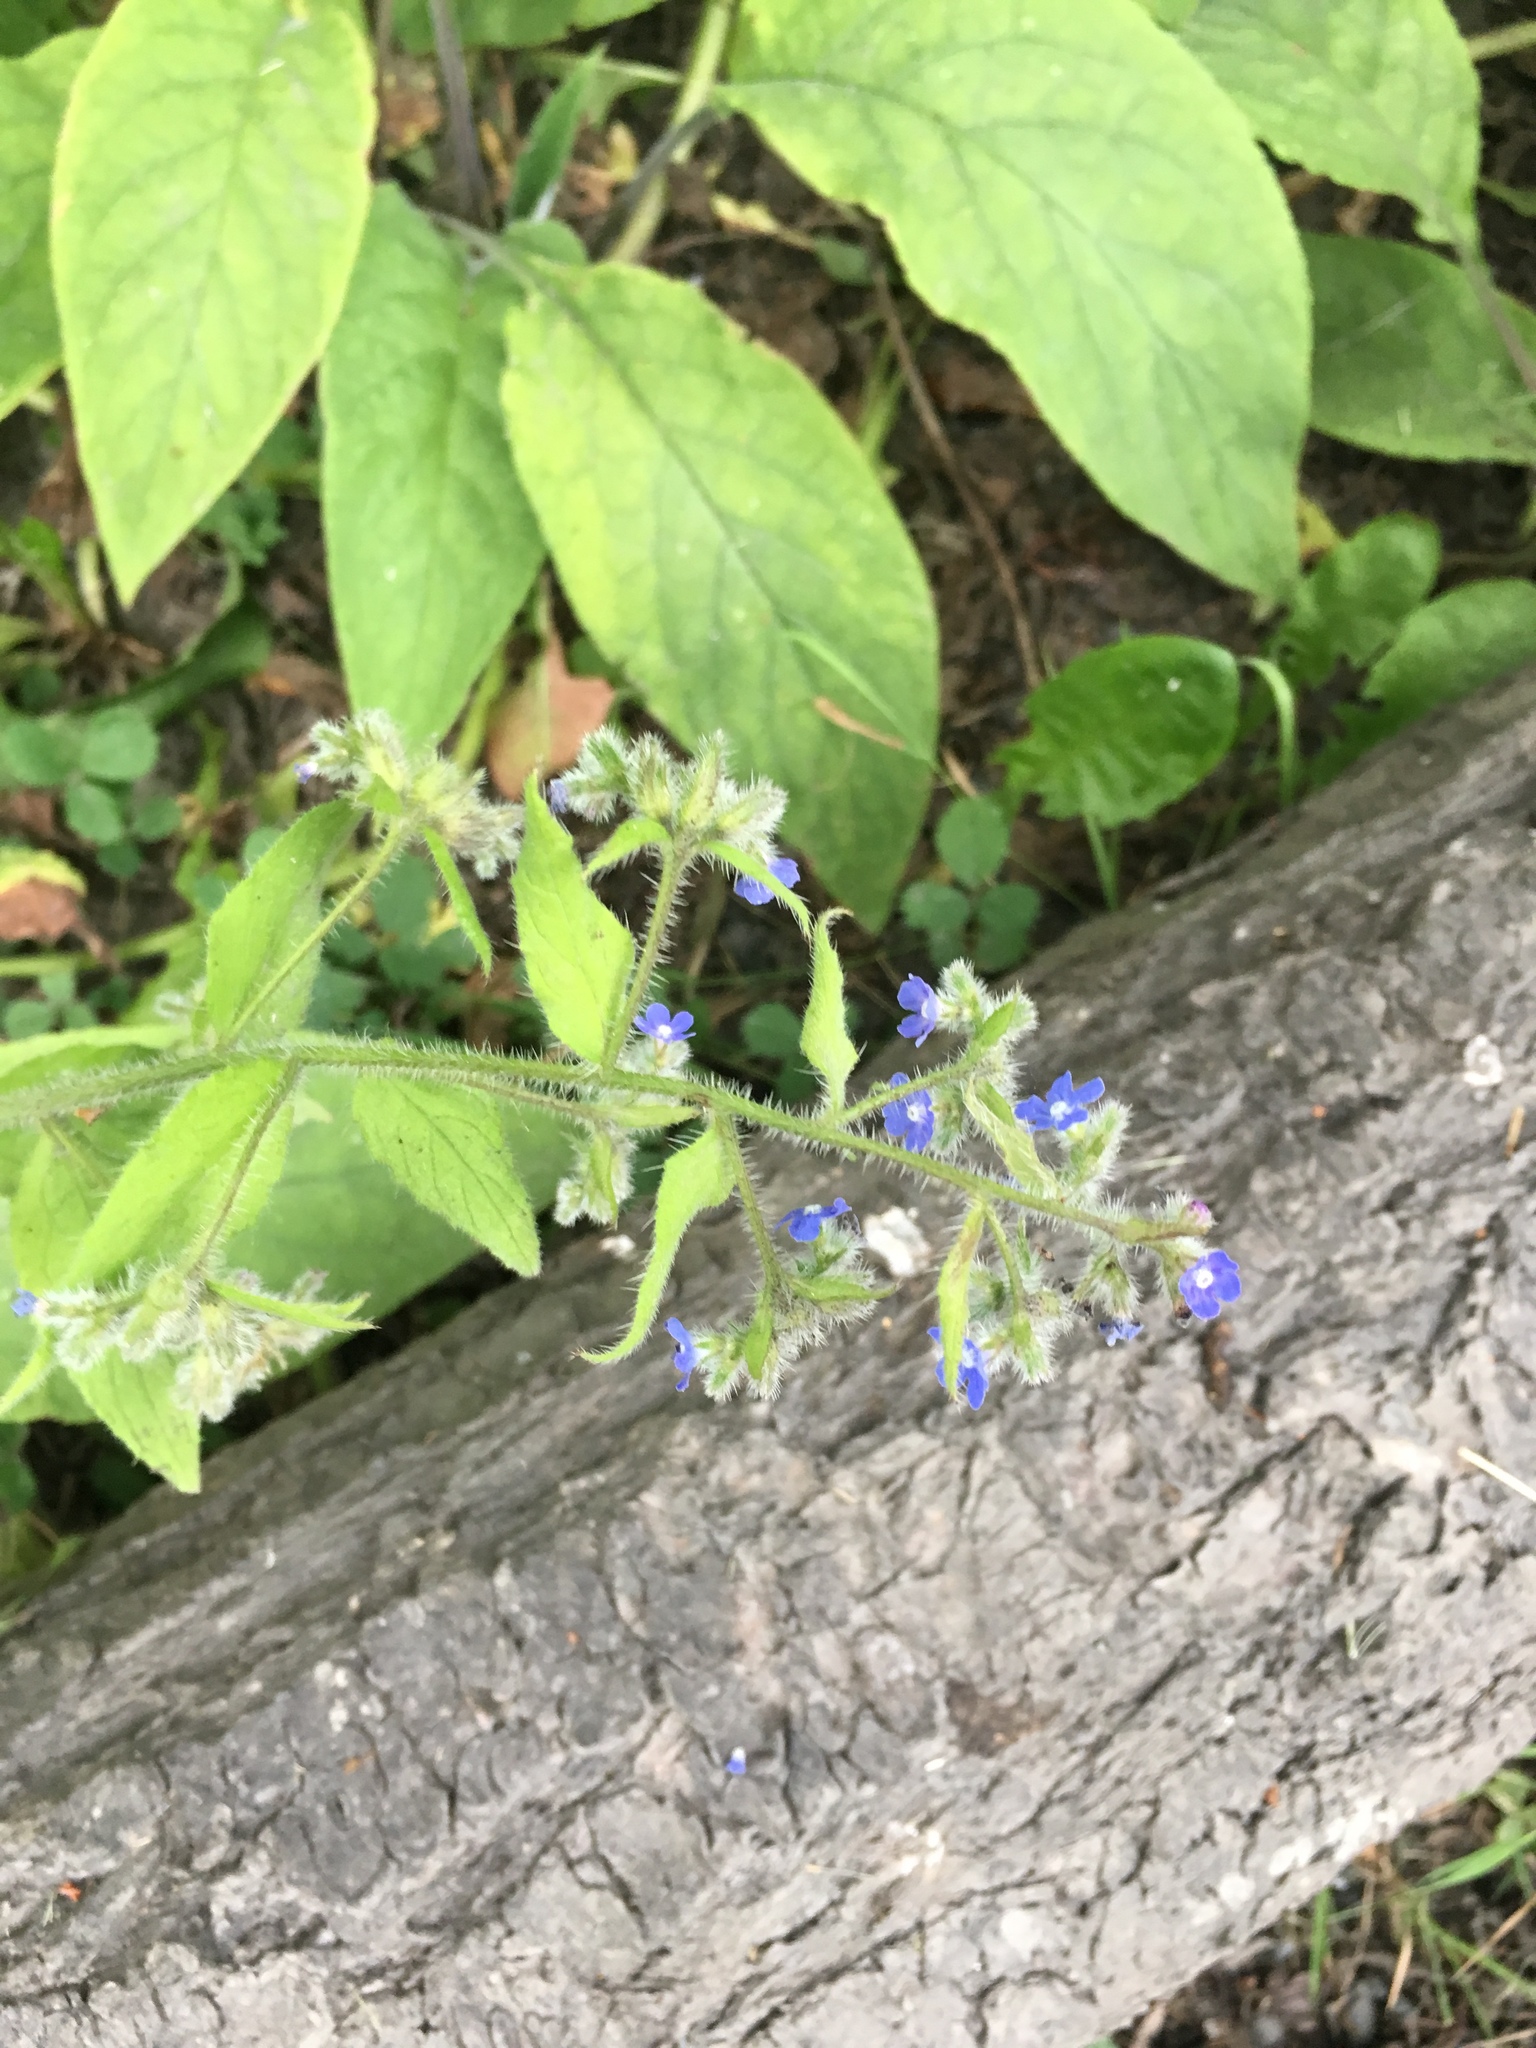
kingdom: Plantae
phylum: Tracheophyta
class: Magnoliopsida
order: Boraginales
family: Boraginaceae
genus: Pentaglottis
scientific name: Pentaglottis sempervirens
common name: Green alkanet
